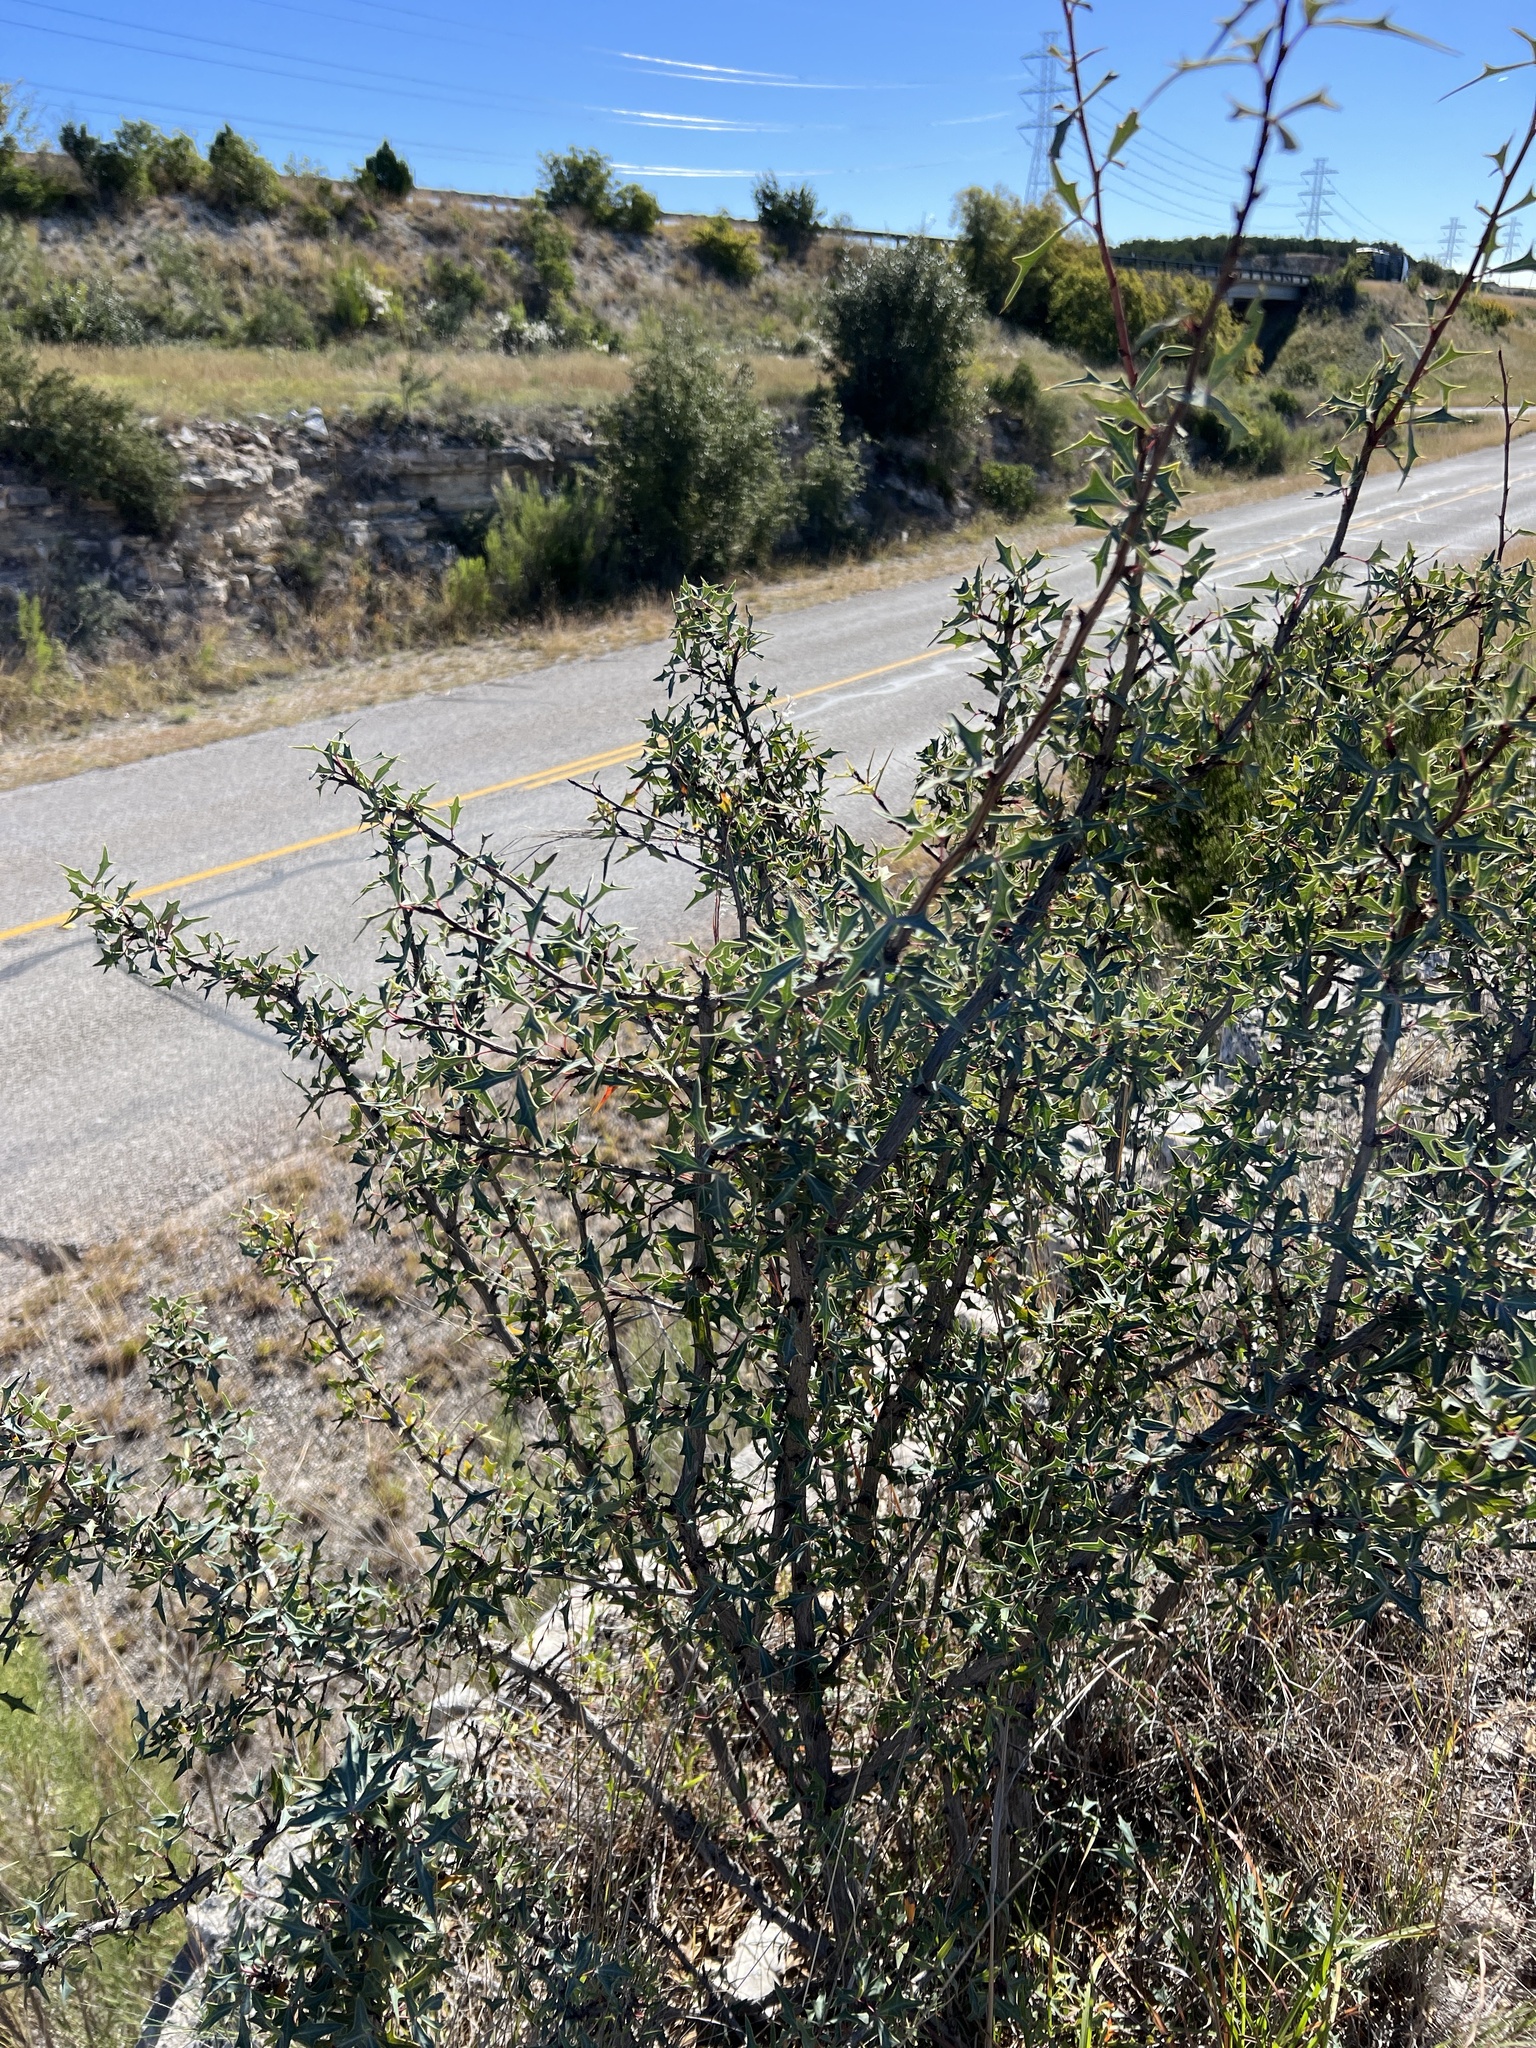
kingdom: Plantae
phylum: Tracheophyta
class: Magnoliopsida
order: Ranunculales
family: Berberidaceae
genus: Alloberberis
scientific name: Alloberberis trifoliolata
